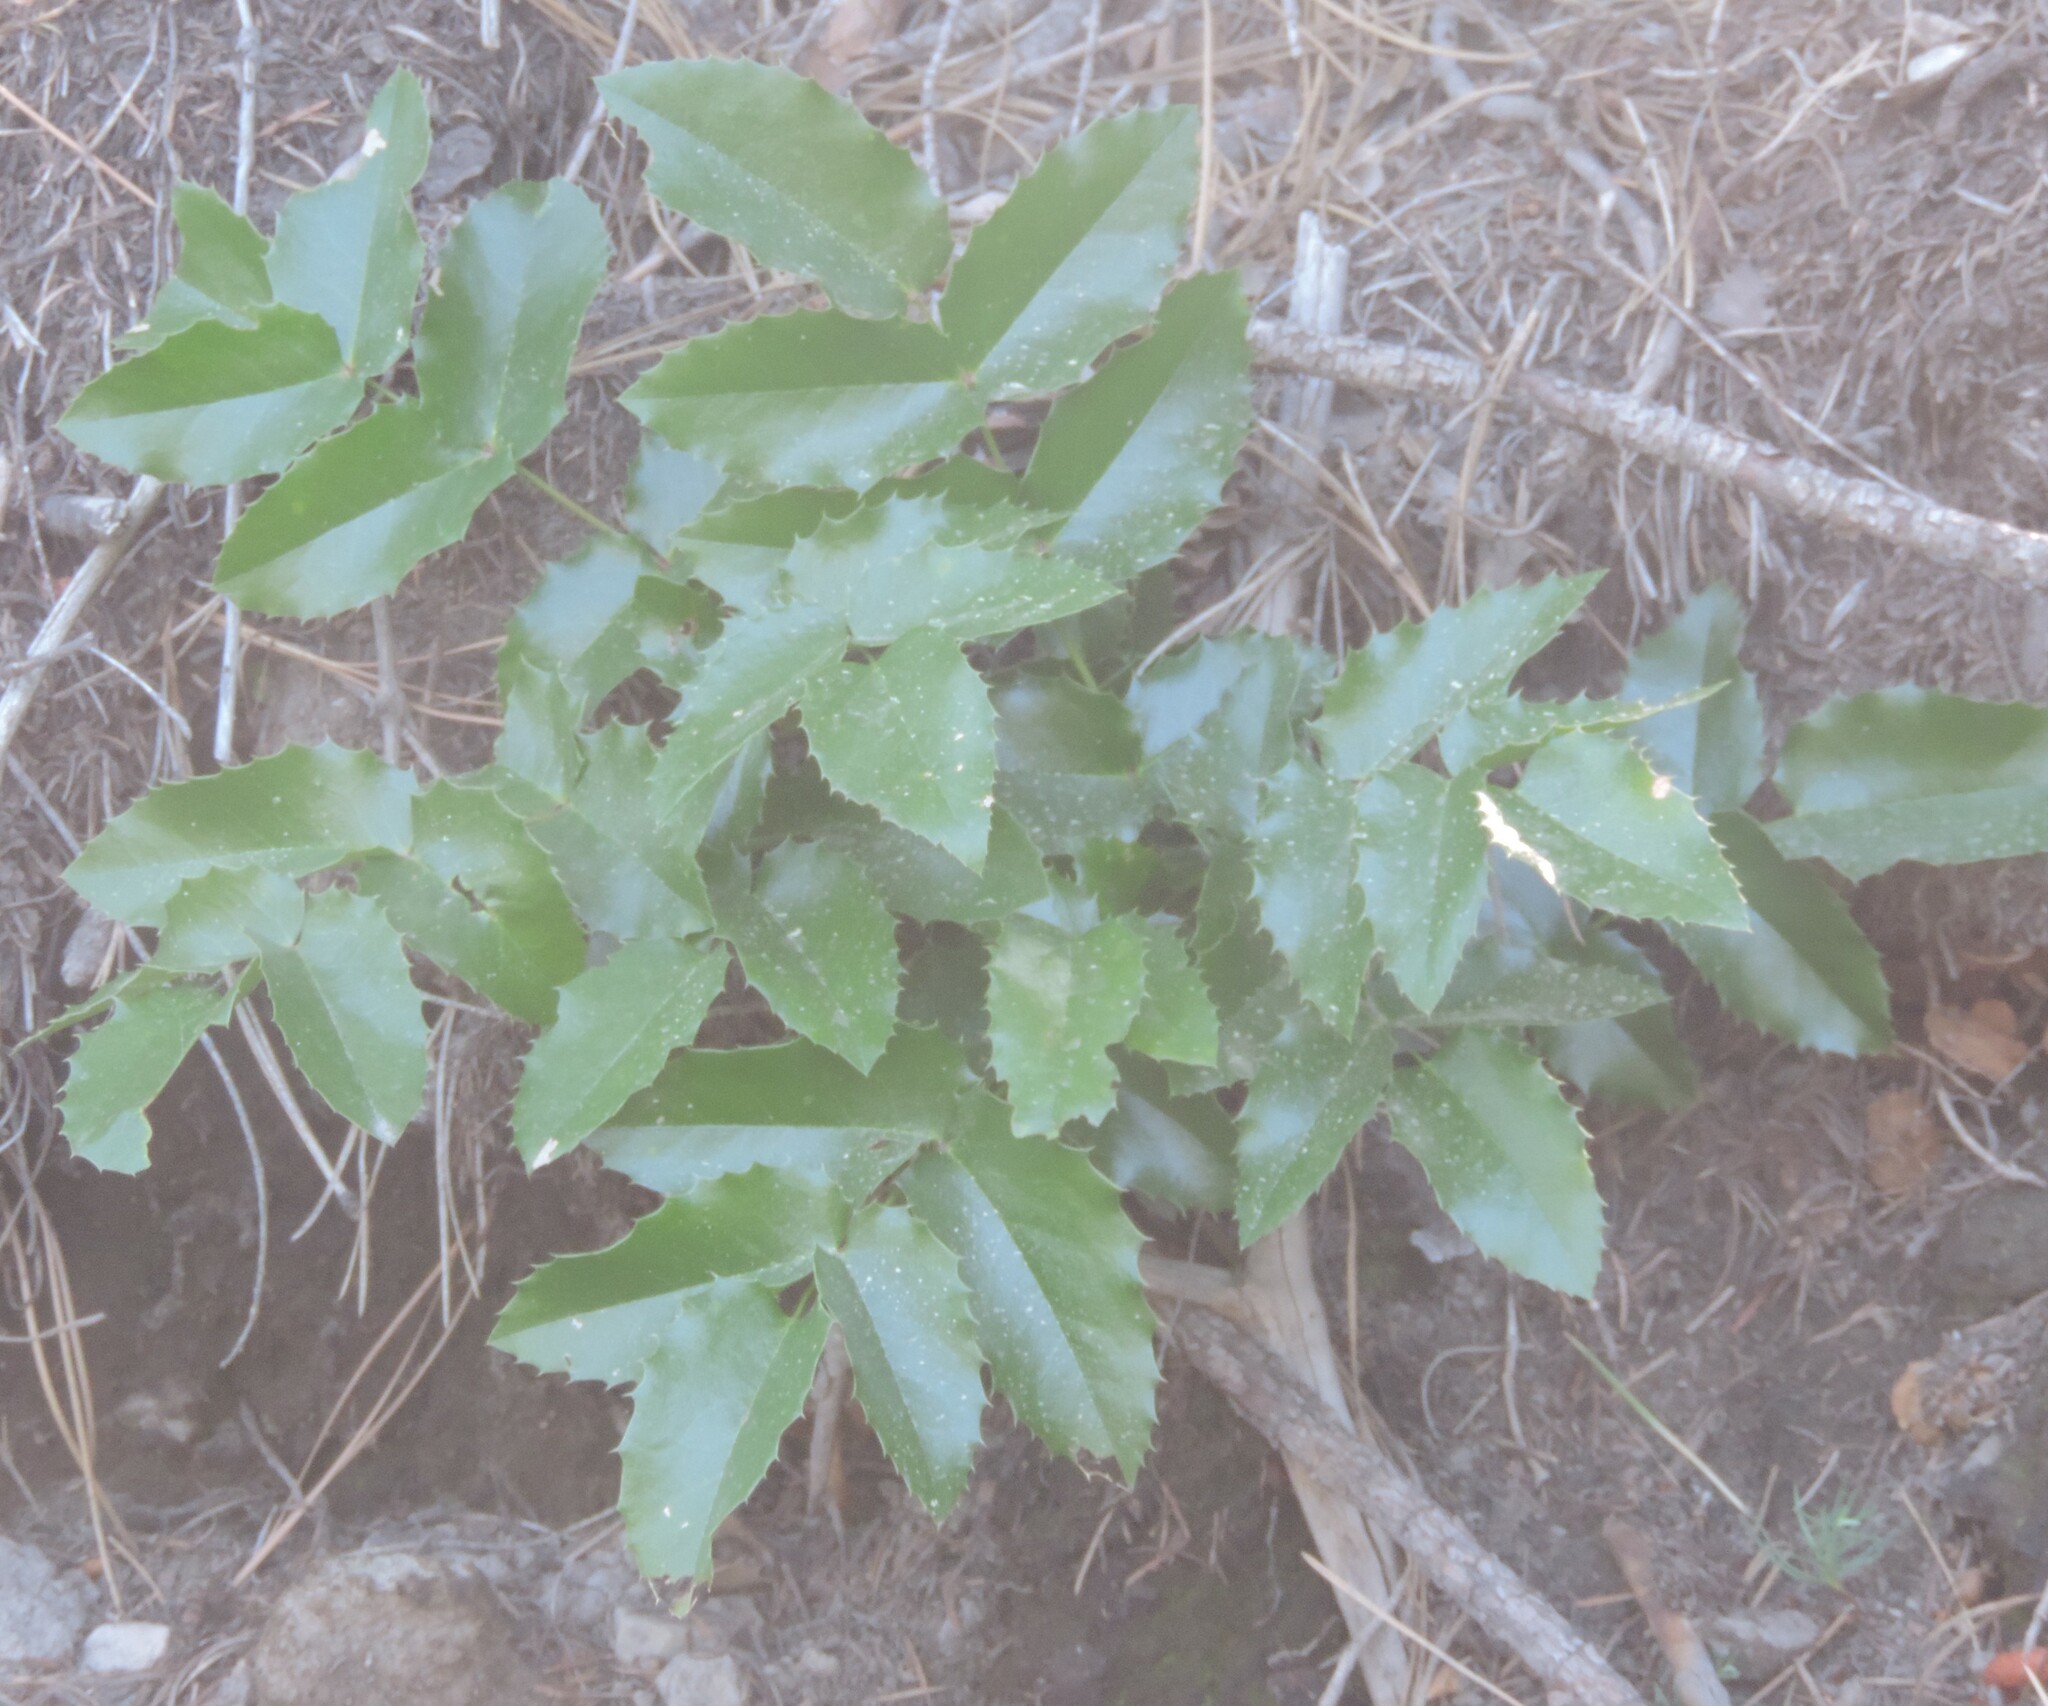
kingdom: Plantae
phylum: Tracheophyta
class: Magnoliopsida
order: Ranunculales
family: Berberidaceae
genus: Mahonia
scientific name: Mahonia aquifolium
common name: Oregon-grape
